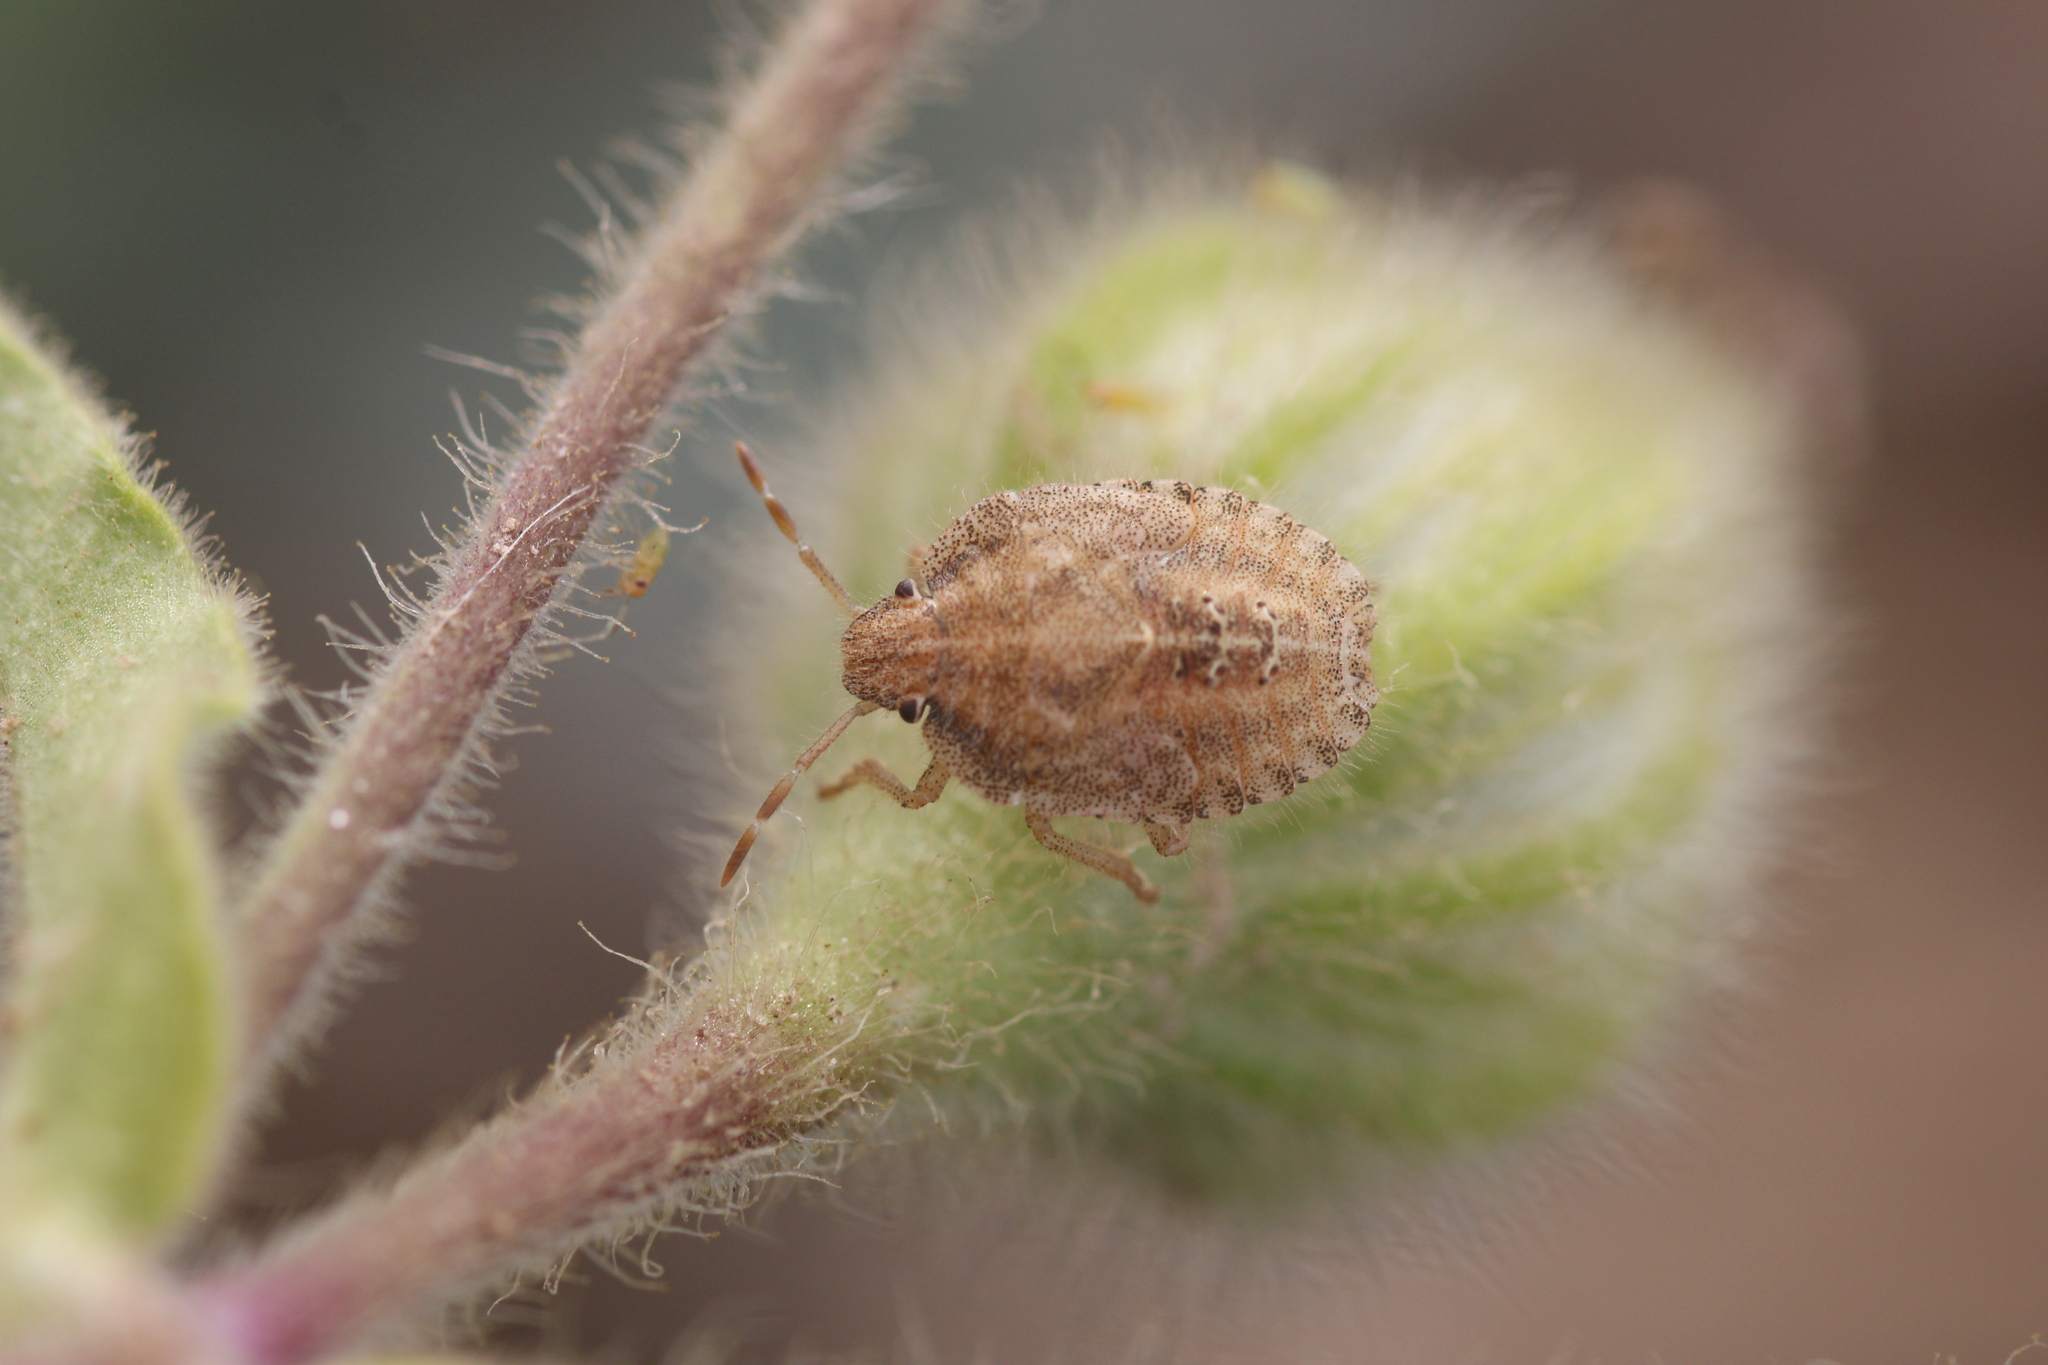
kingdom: Animalia
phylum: Arthropoda
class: Insecta
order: Hemiptera
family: Pentatomidae
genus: Dolycoris
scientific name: Dolycoris baccarum
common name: Sloe bug
